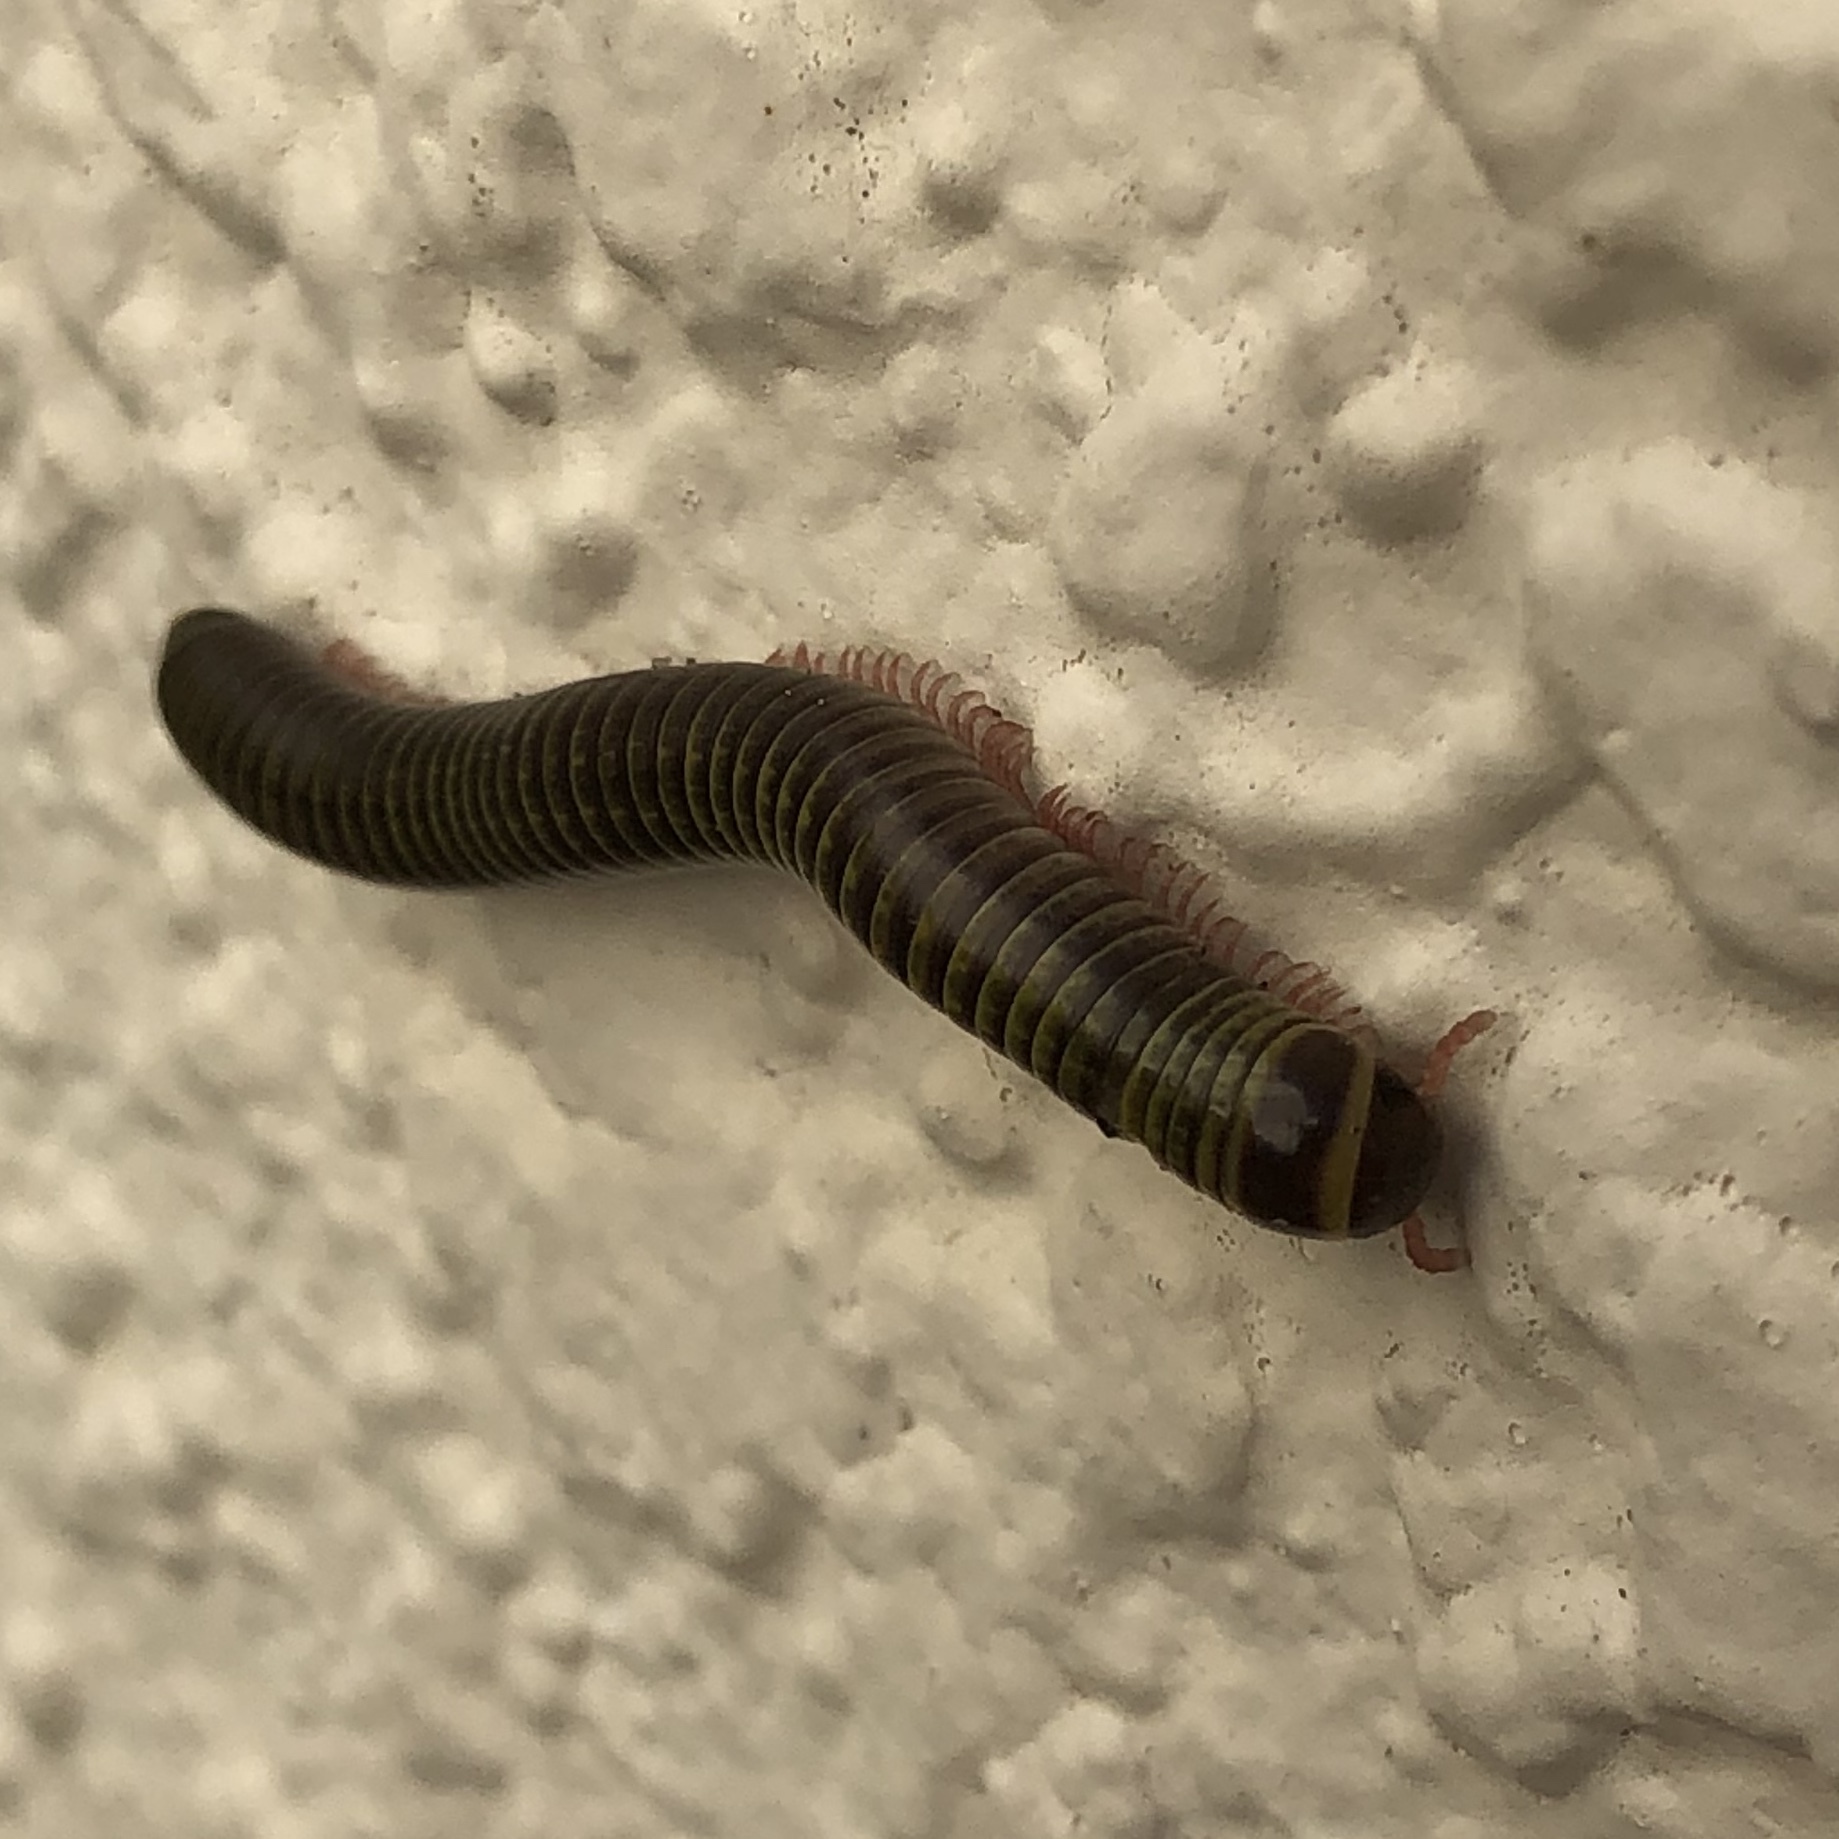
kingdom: Animalia
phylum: Arthropoda
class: Diplopoda
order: Spirobolida
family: Rhinocricidae
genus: Anadenobolus
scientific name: Anadenobolus monilicornis
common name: Caribbean millipede
